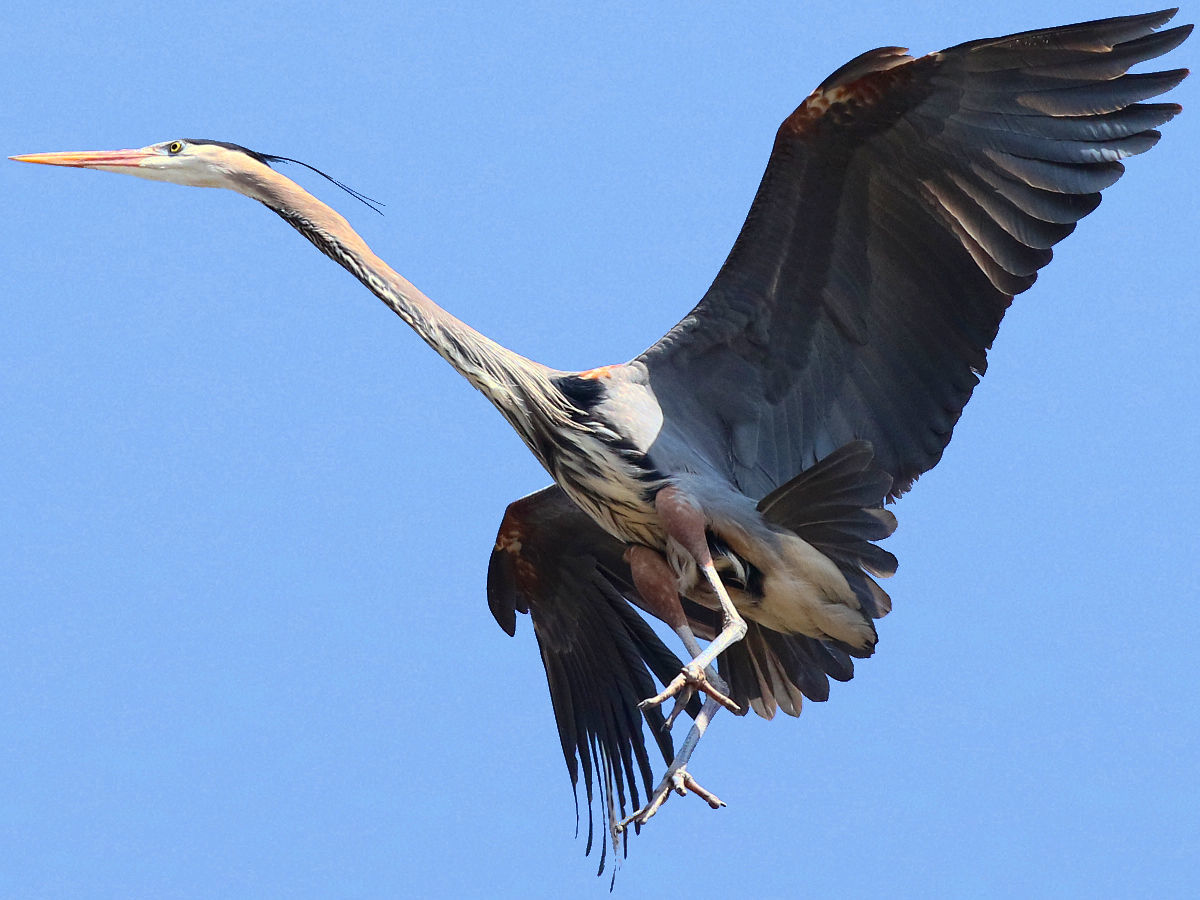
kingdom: Animalia
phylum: Chordata
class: Aves
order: Pelecaniformes
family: Ardeidae
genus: Ardea
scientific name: Ardea herodias
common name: Great blue heron
